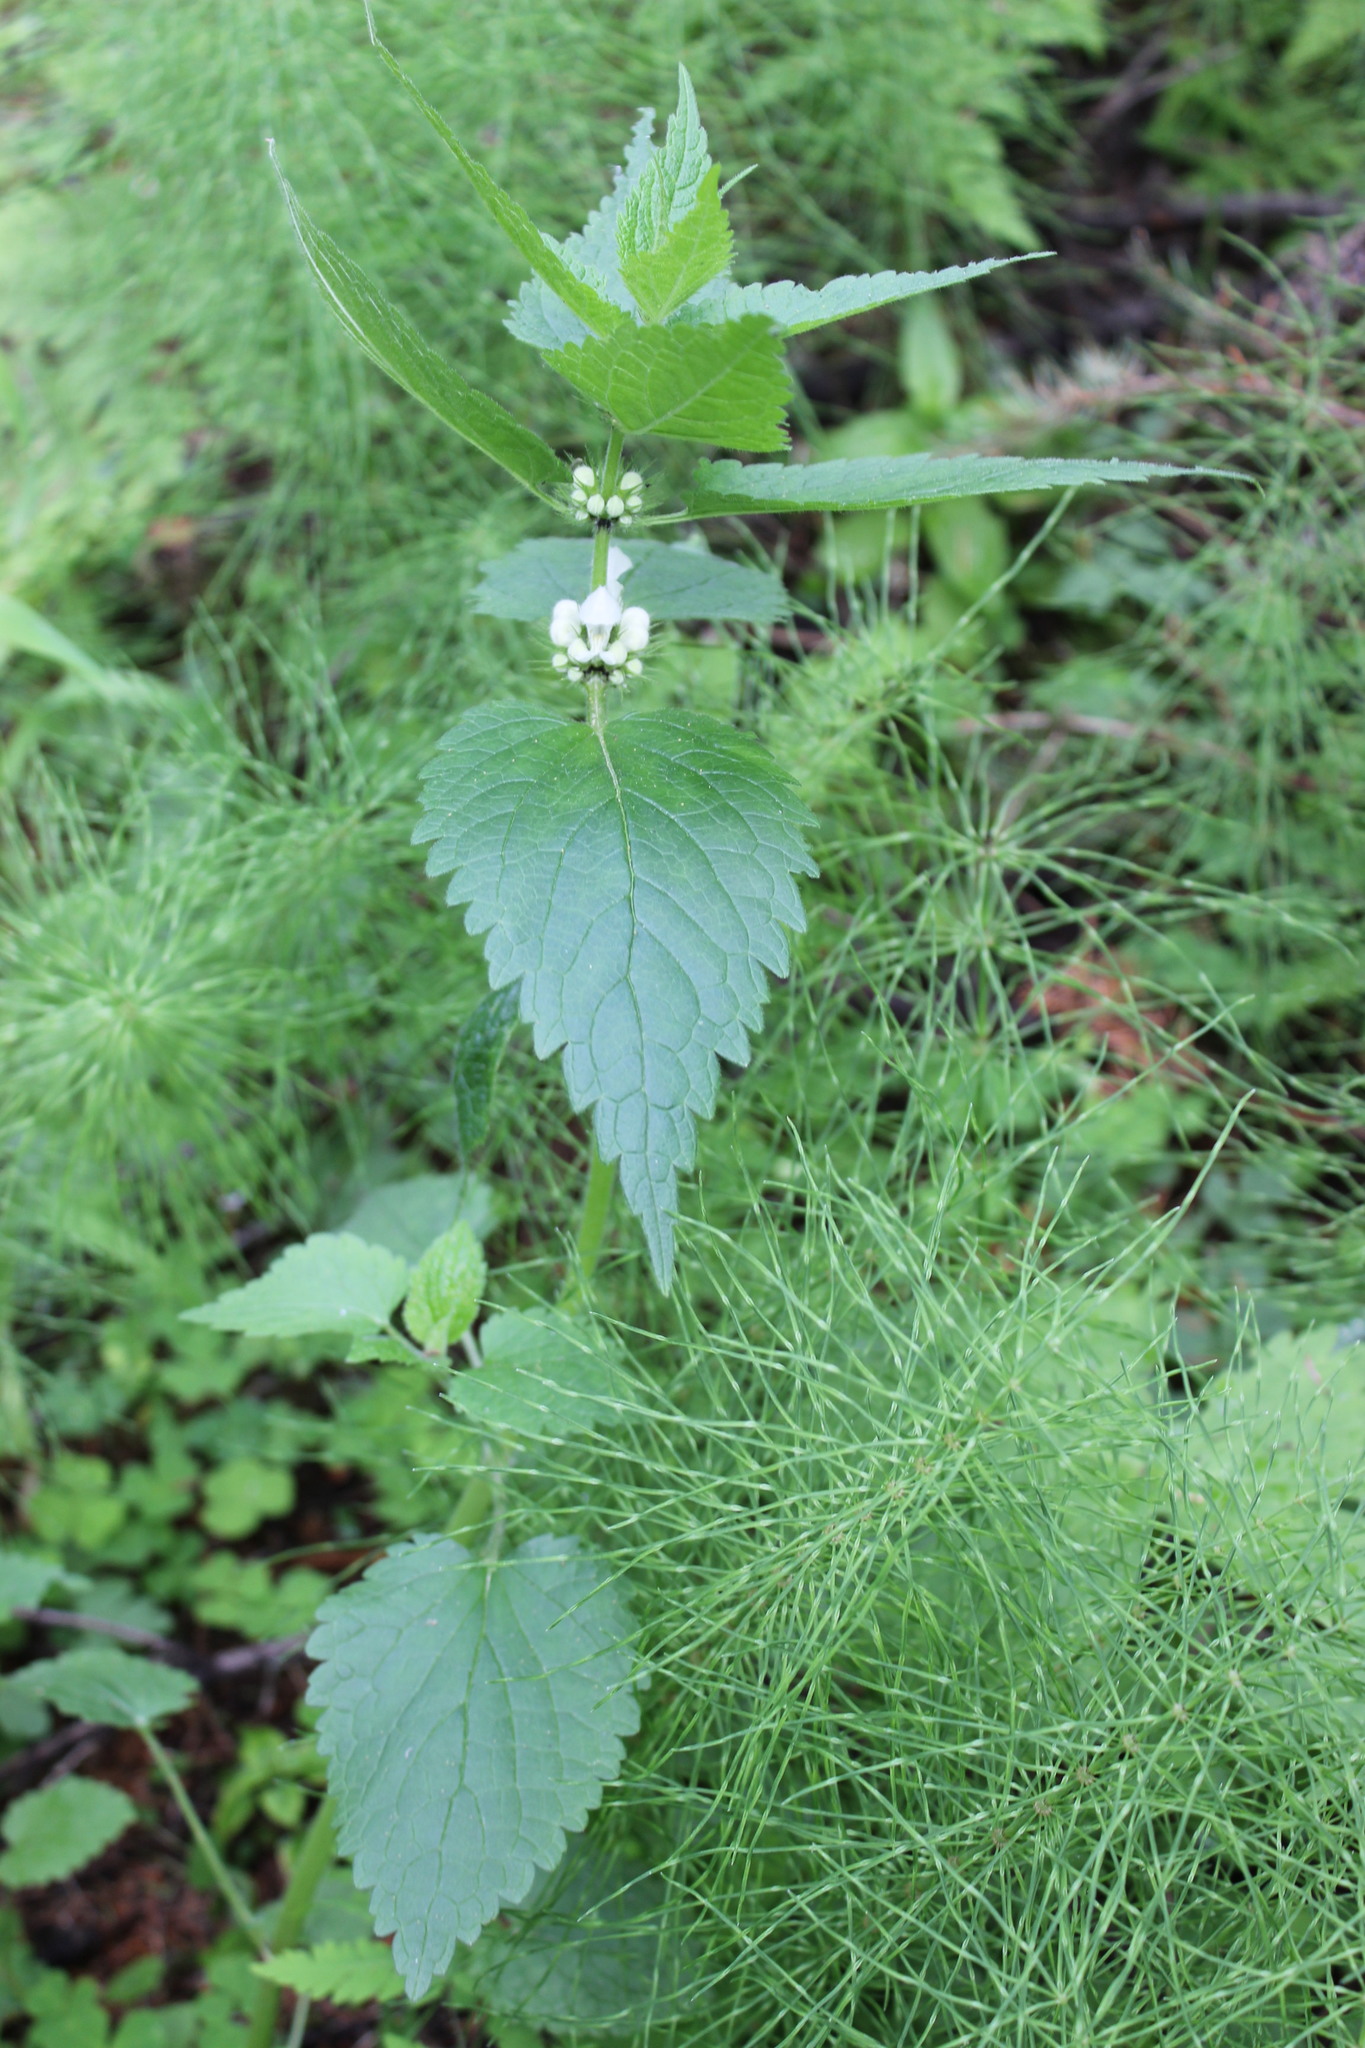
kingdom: Plantae
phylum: Tracheophyta
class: Magnoliopsida
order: Lamiales
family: Lamiaceae
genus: Lamium
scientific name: Lamium album
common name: White dead-nettle
